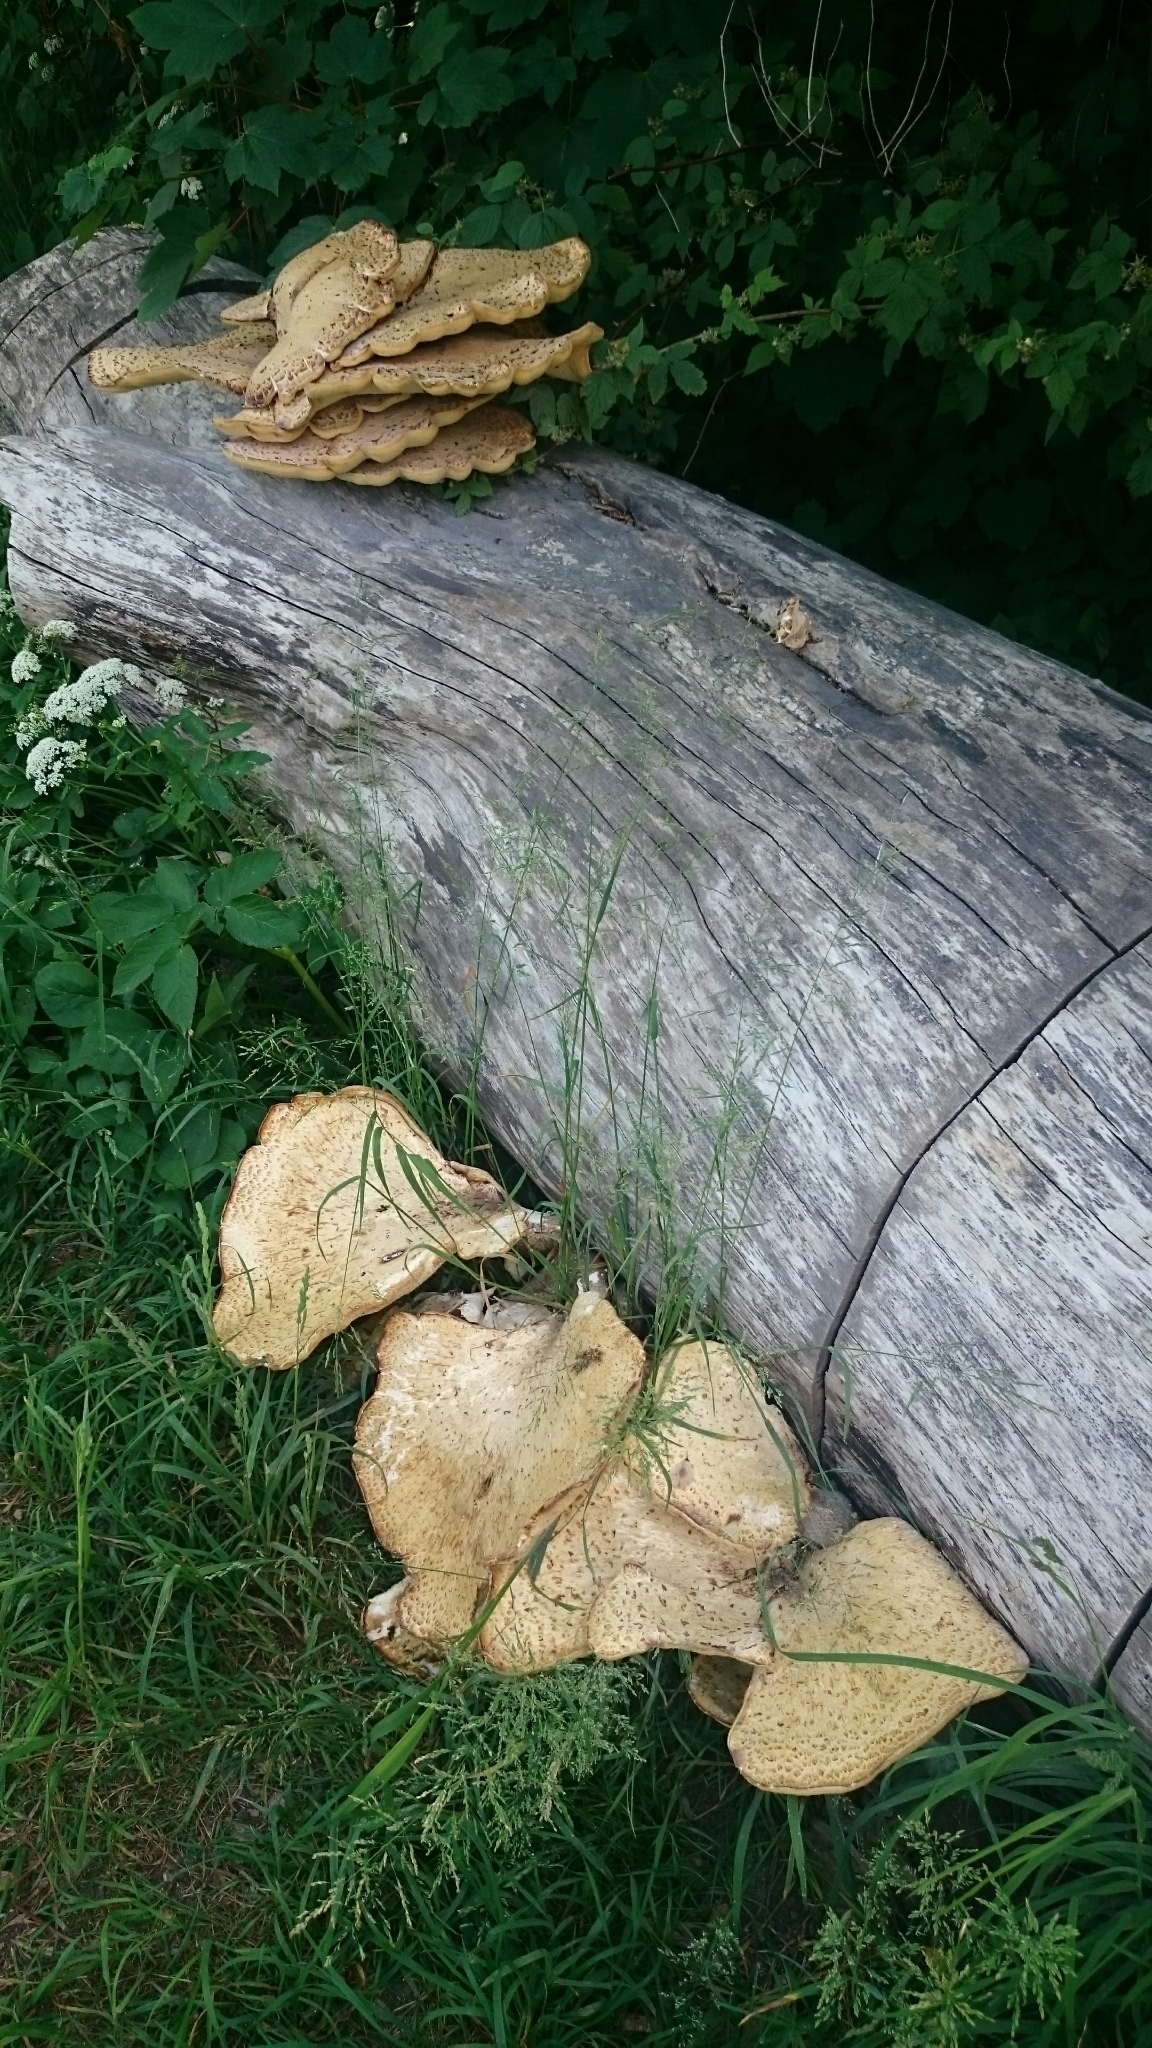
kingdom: Fungi
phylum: Basidiomycota
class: Agaricomycetes
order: Polyporales
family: Polyporaceae
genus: Cerioporus
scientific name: Cerioporus squamosus
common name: Dryad's saddle
